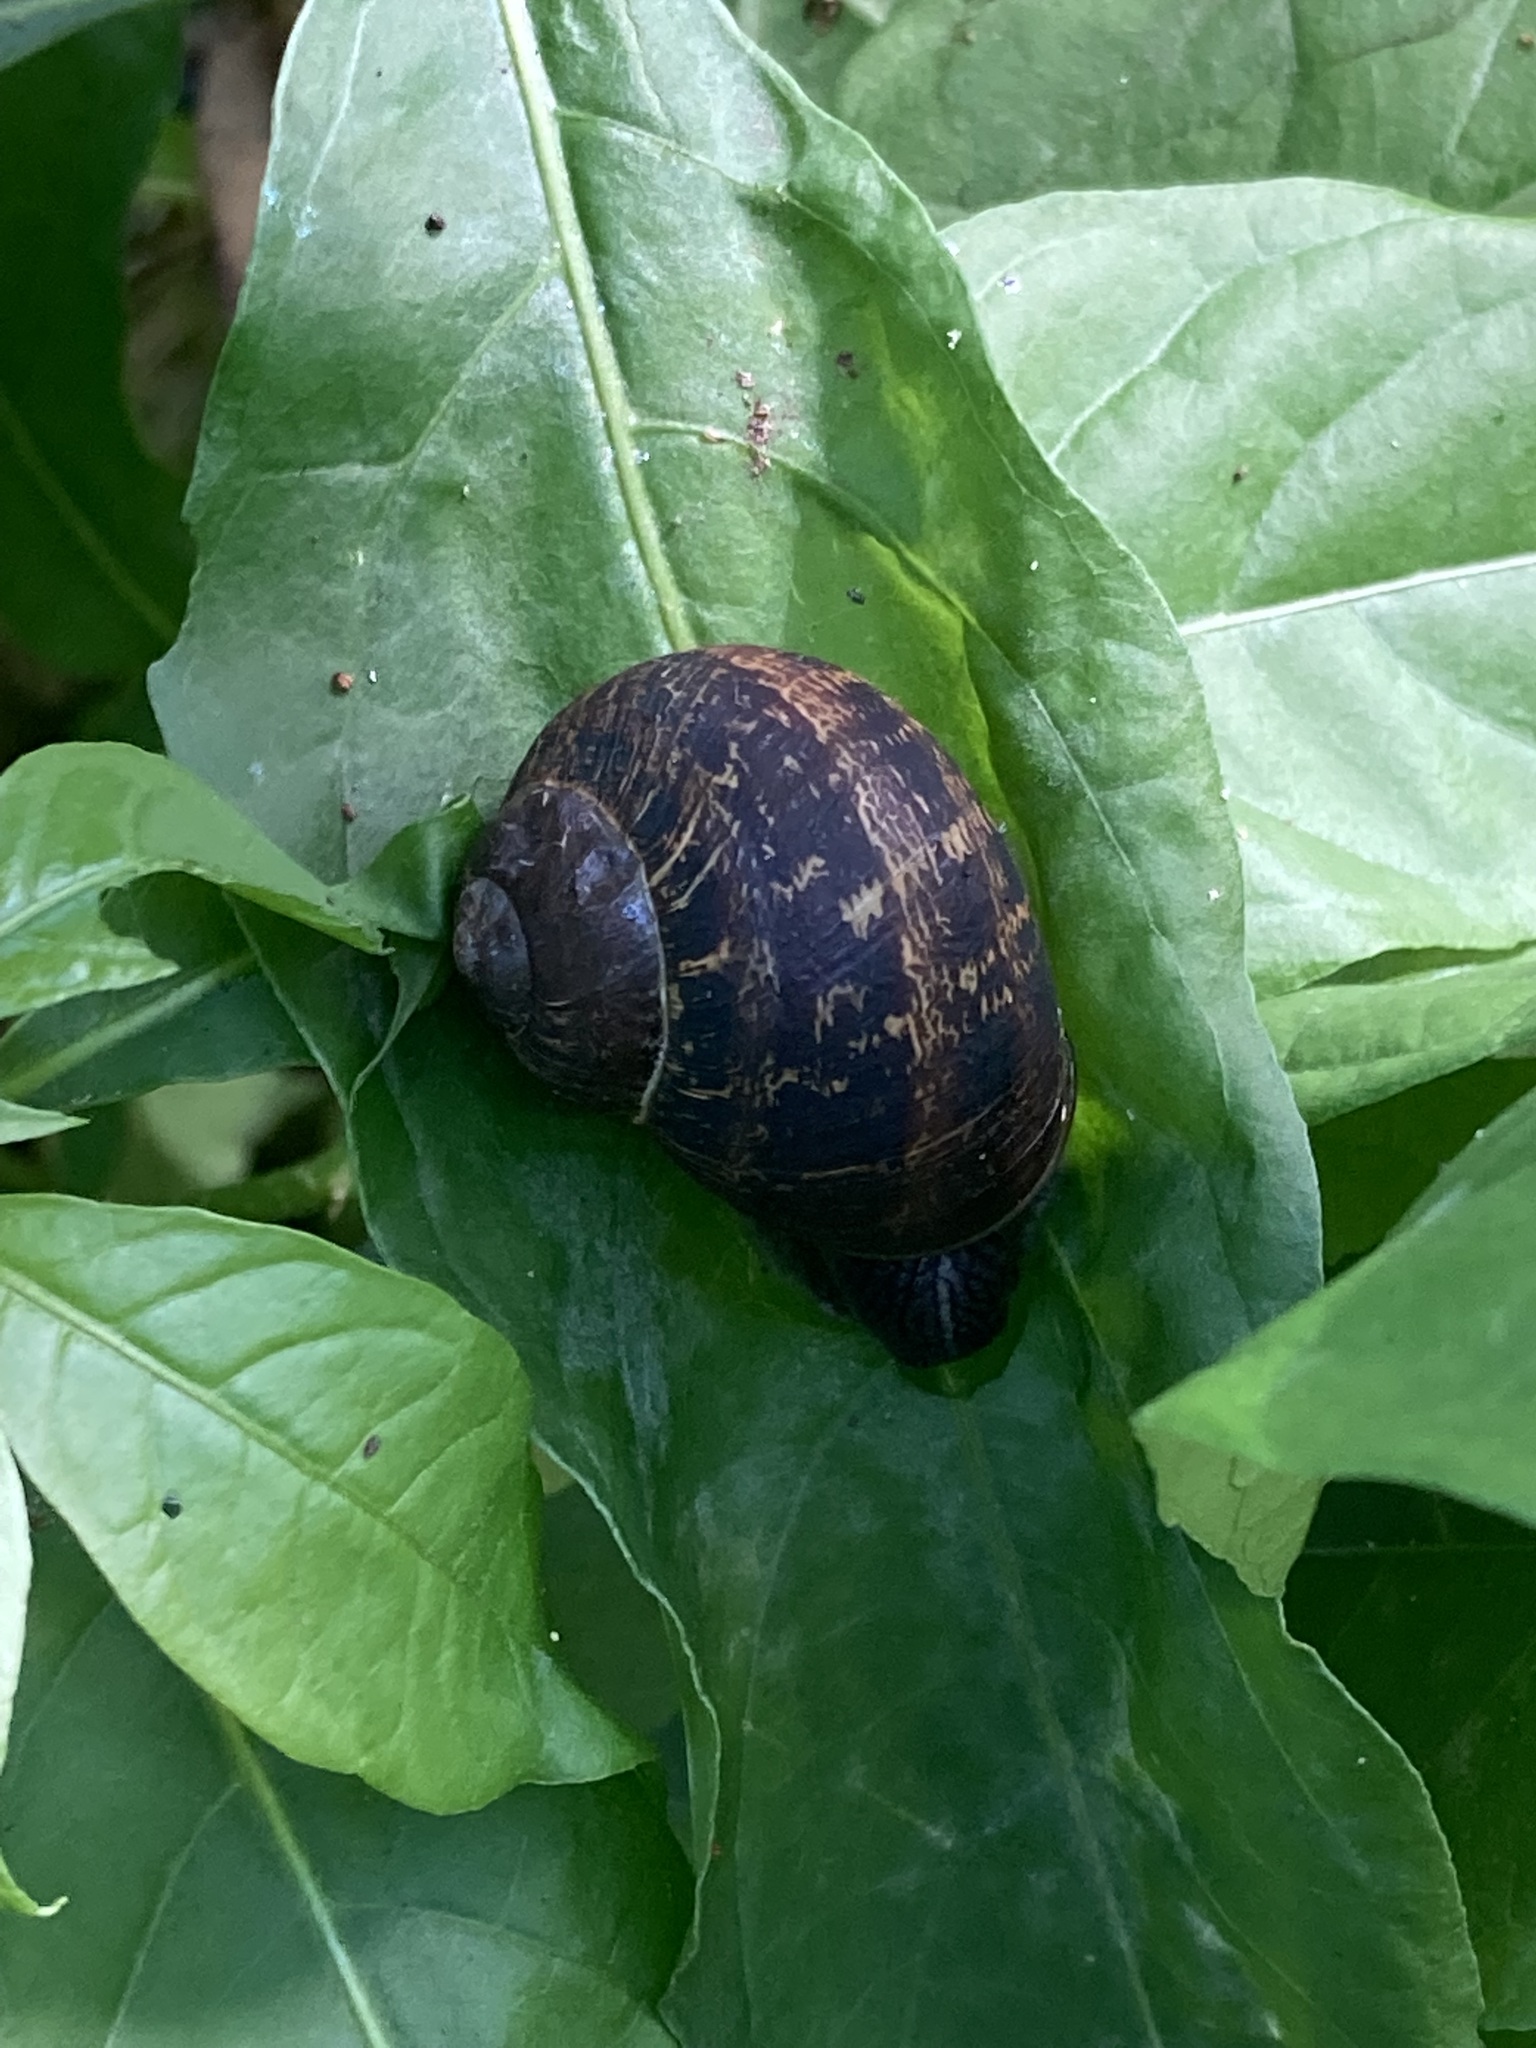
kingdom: Animalia
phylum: Mollusca
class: Gastropoda
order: Stylommatophora
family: Helicidae
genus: Cornu
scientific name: Cornu aspersum
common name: Brown garden snail
